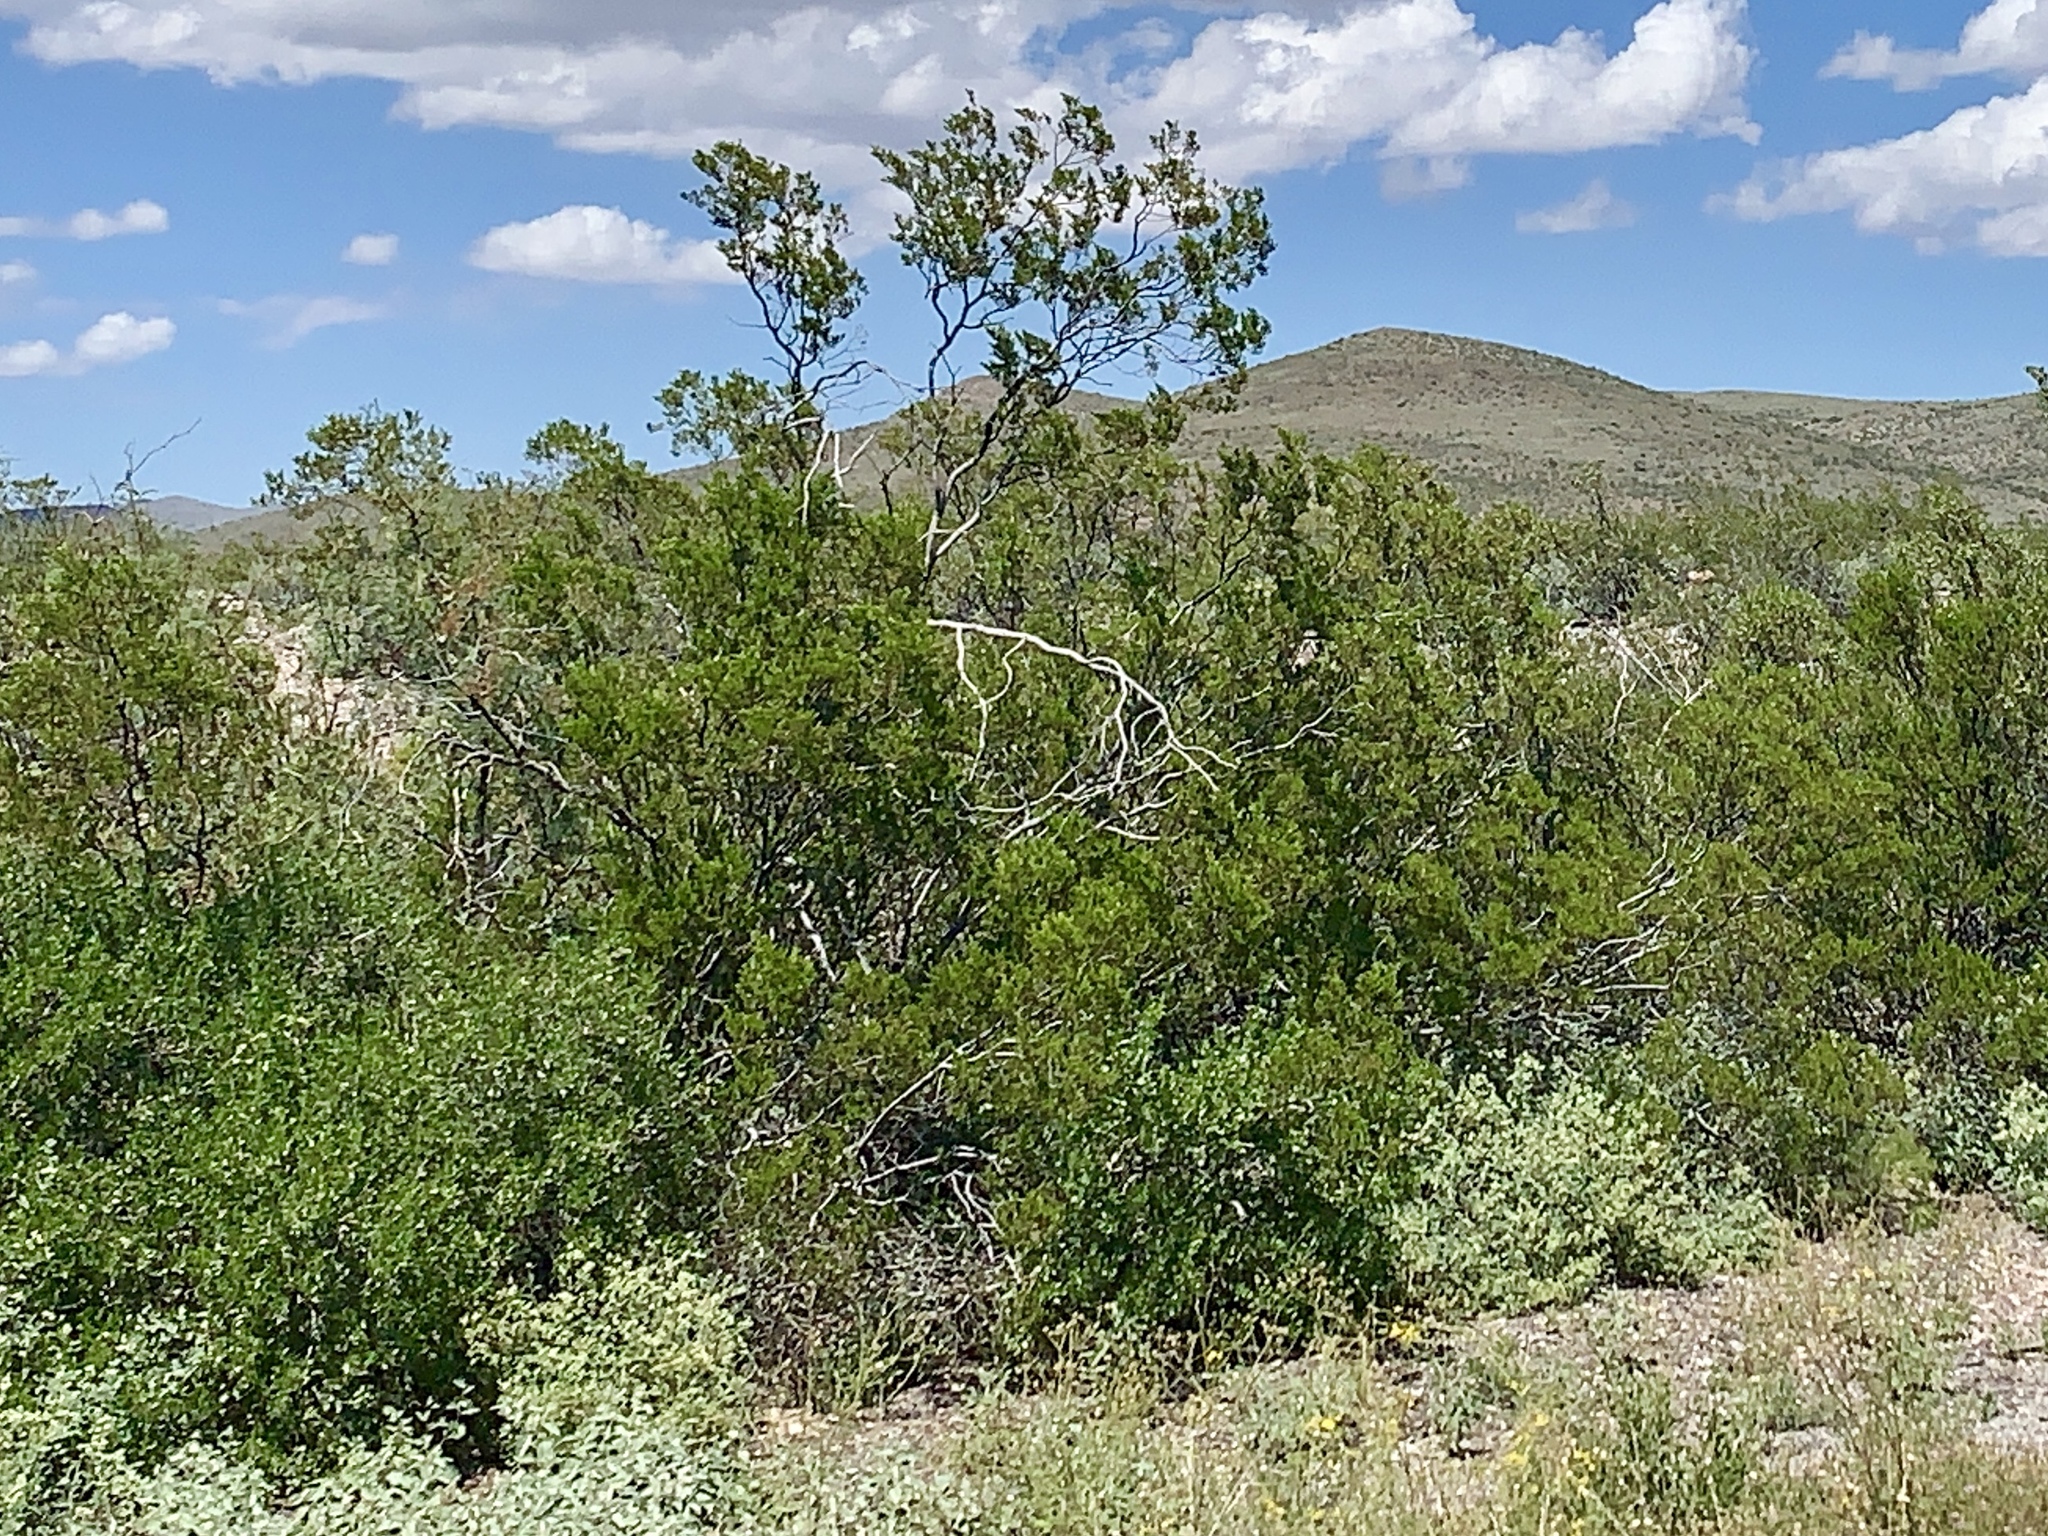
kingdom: Plantae
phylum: Tracheophyta
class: Magnoliopsida
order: Zygophyllales
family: Zygophyllaceae
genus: Larrea
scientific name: Larrea tridentata
